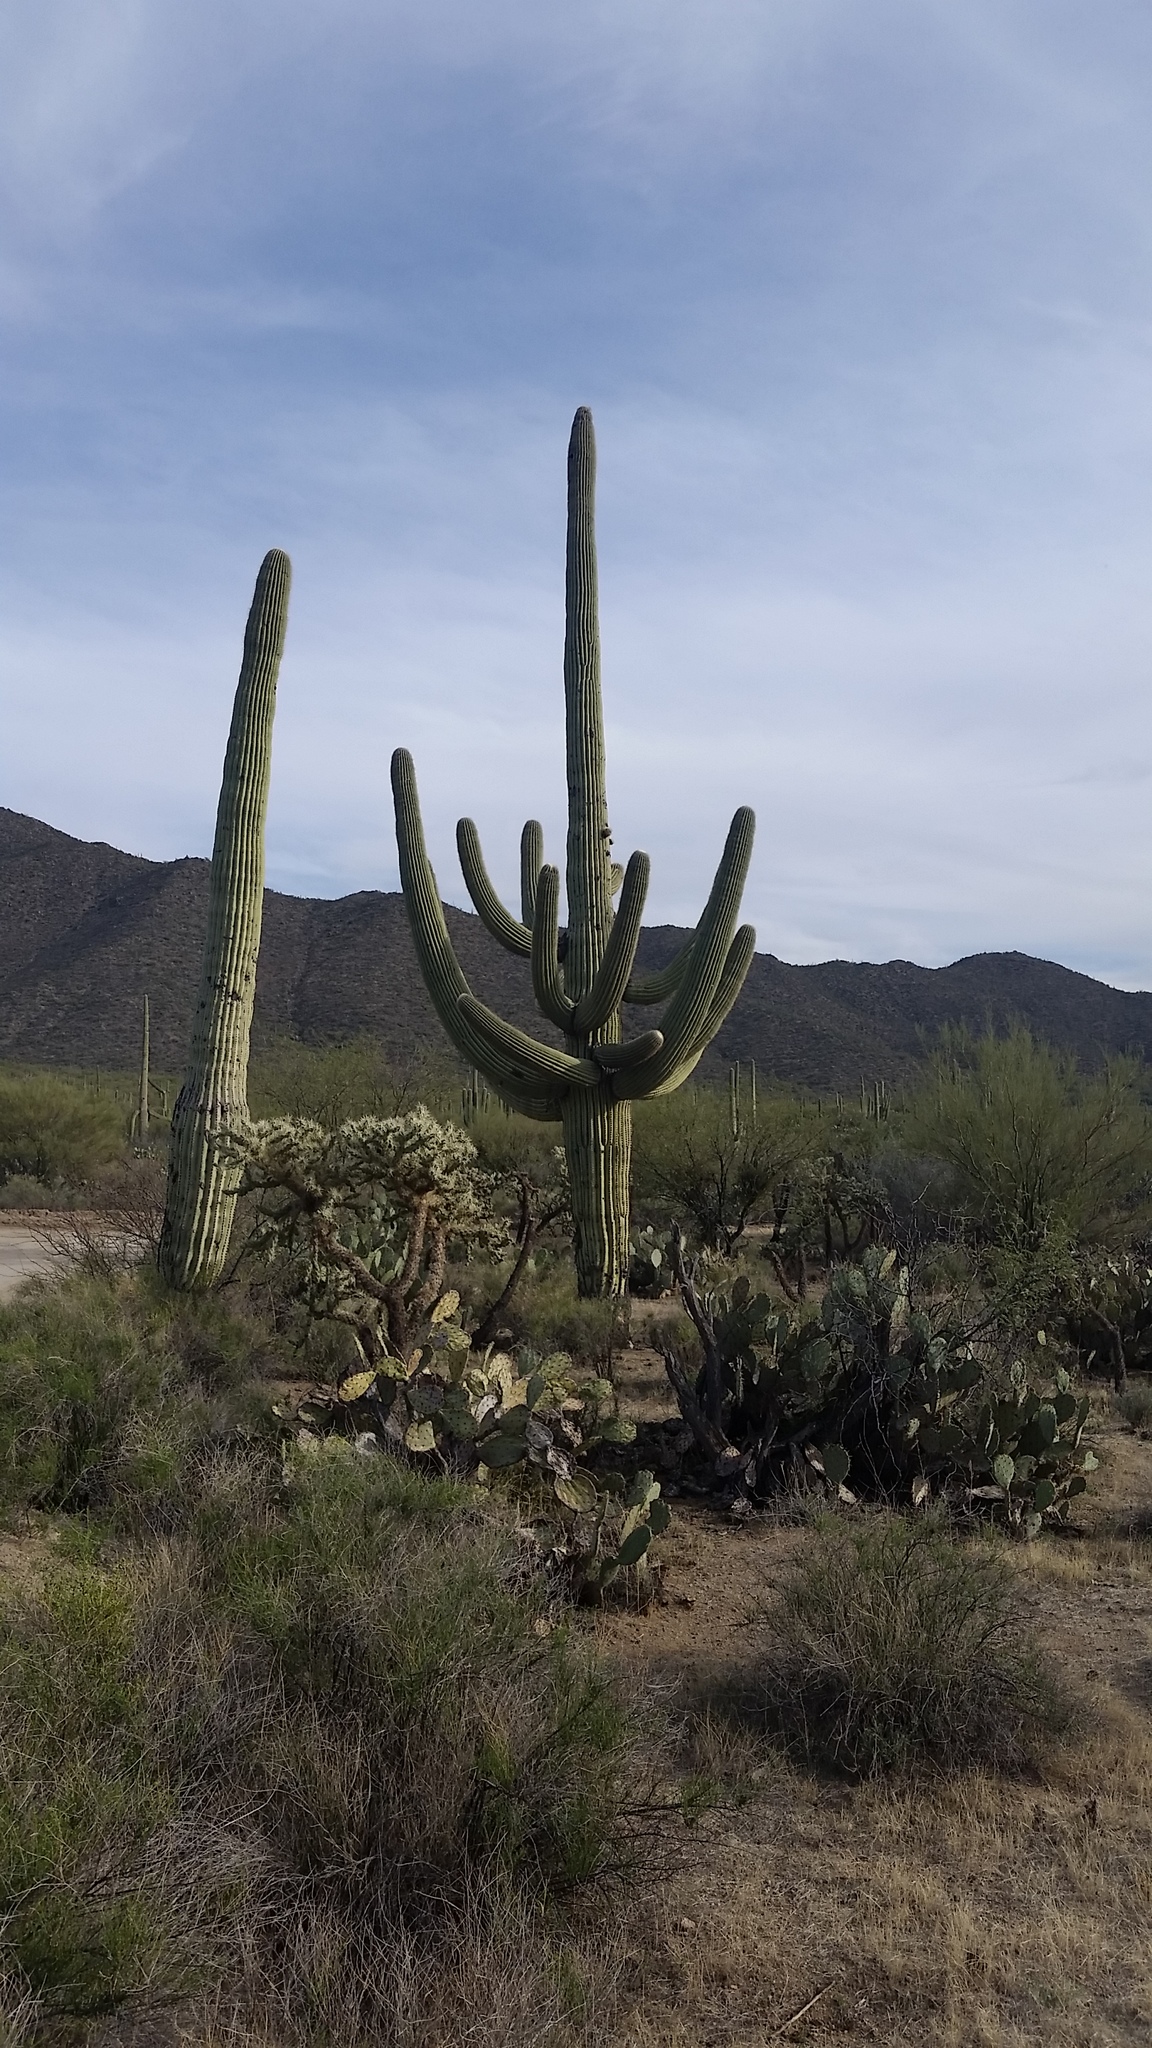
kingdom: Plantae
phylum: Tracheophyta
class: Magnoliopsida
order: Caryophyllales
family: Cactaceae
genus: Carnegiea
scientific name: Carnegiea gigantea
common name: Saguaro
